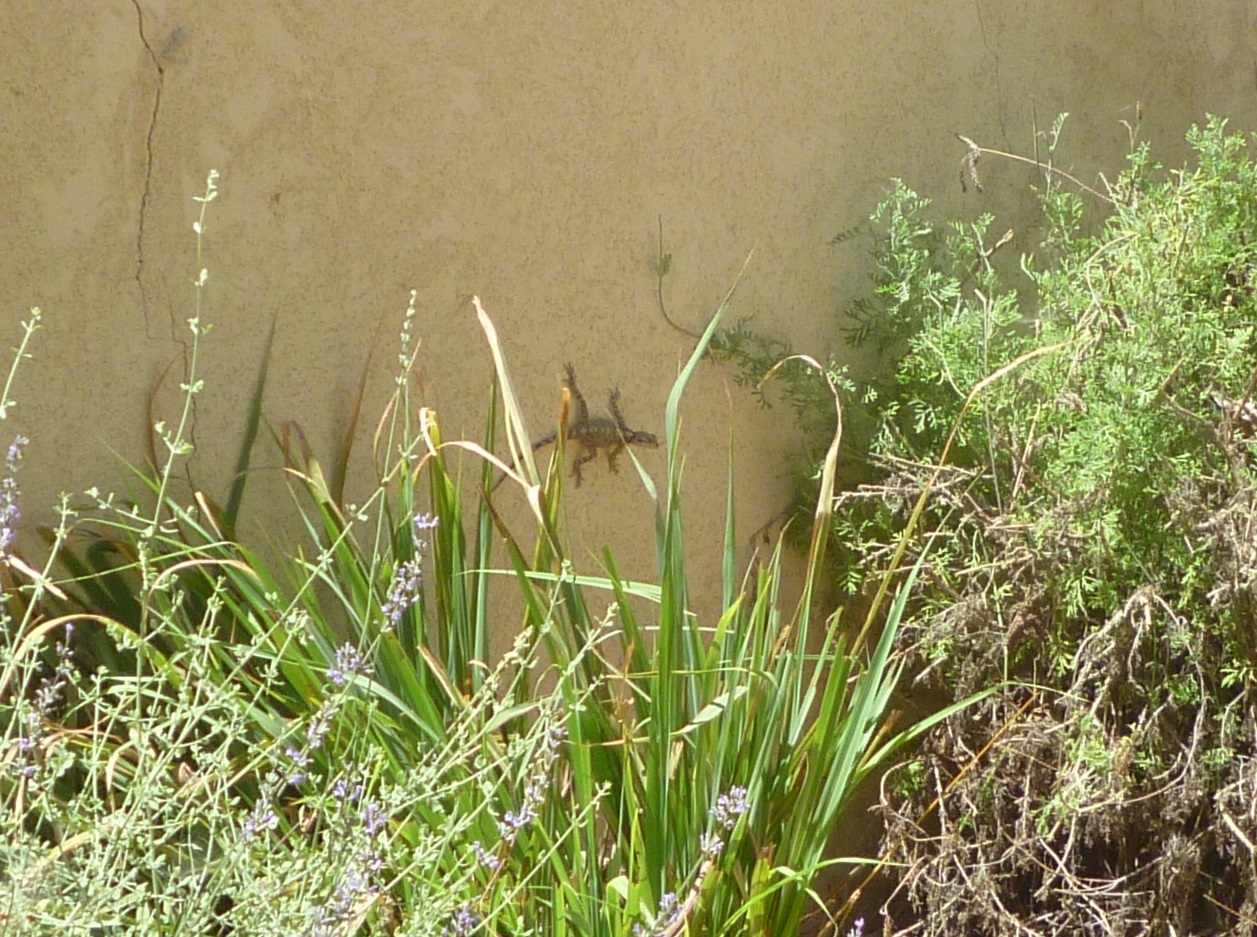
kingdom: Animalia
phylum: Chordata
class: Squamata
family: Agamidae
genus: Laudakia
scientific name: Laudakia vulgaris
